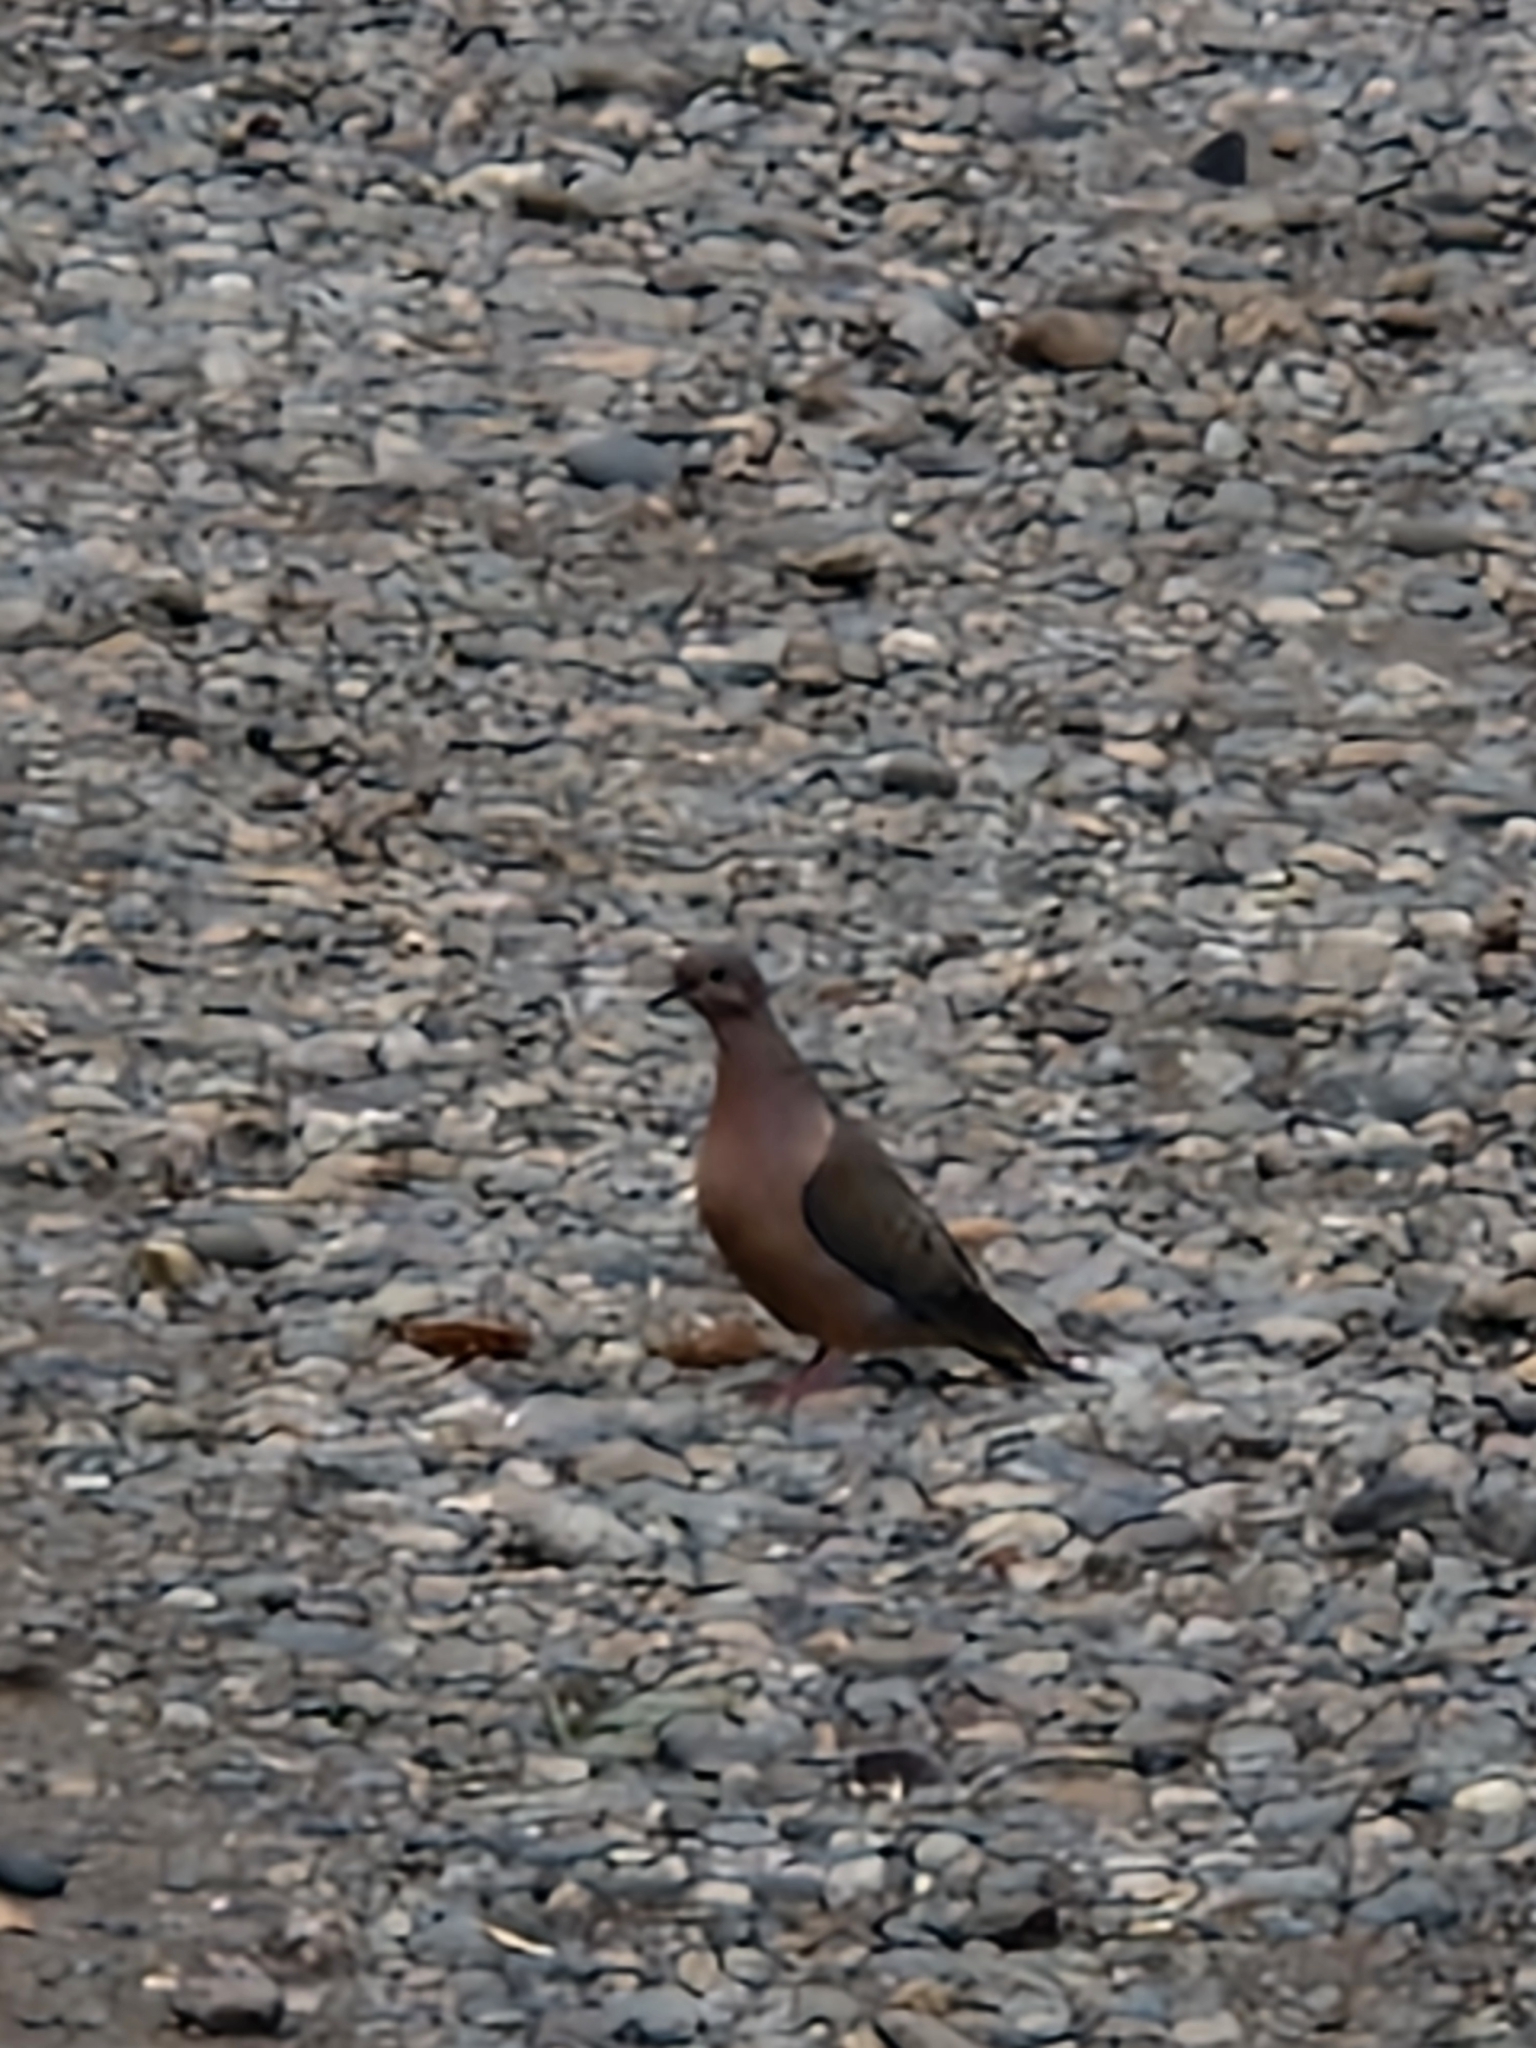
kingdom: Animalia
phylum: Chordata
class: Aves
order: Columbiformes
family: Columbidae
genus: Zenaida
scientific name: Zenaida auriculata
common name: Eared dove
